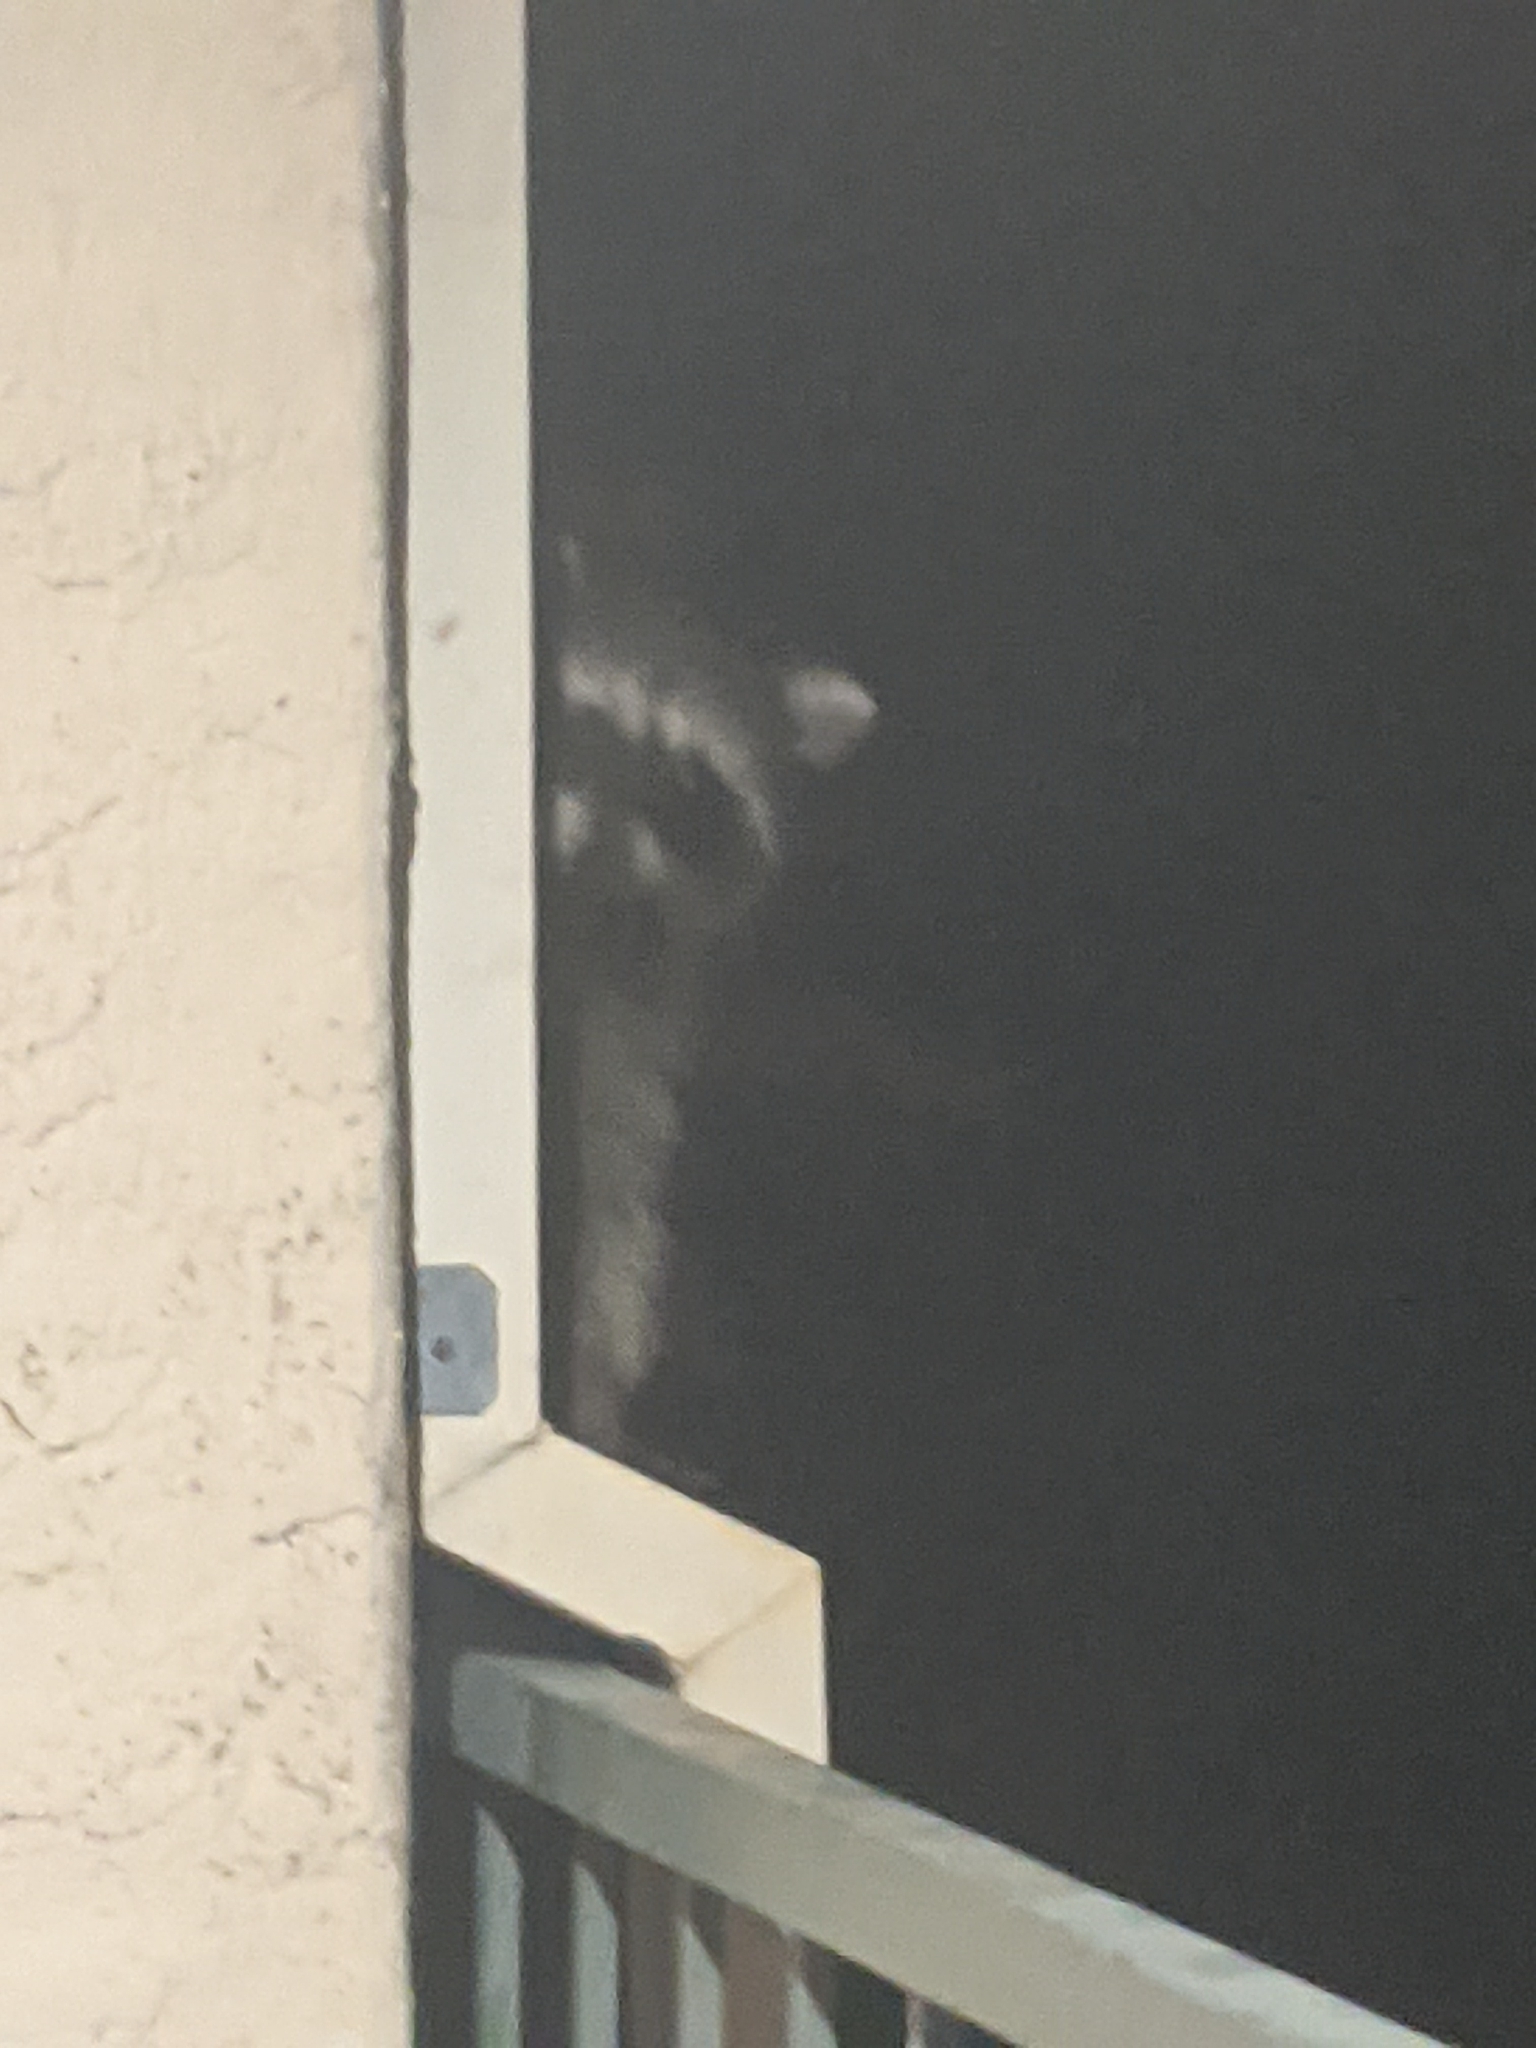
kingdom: Animalia
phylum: Chordata
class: Mammalia
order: Carnivora
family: Procyonidae
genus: Procyon
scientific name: Procyon lotor
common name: Raccoon
